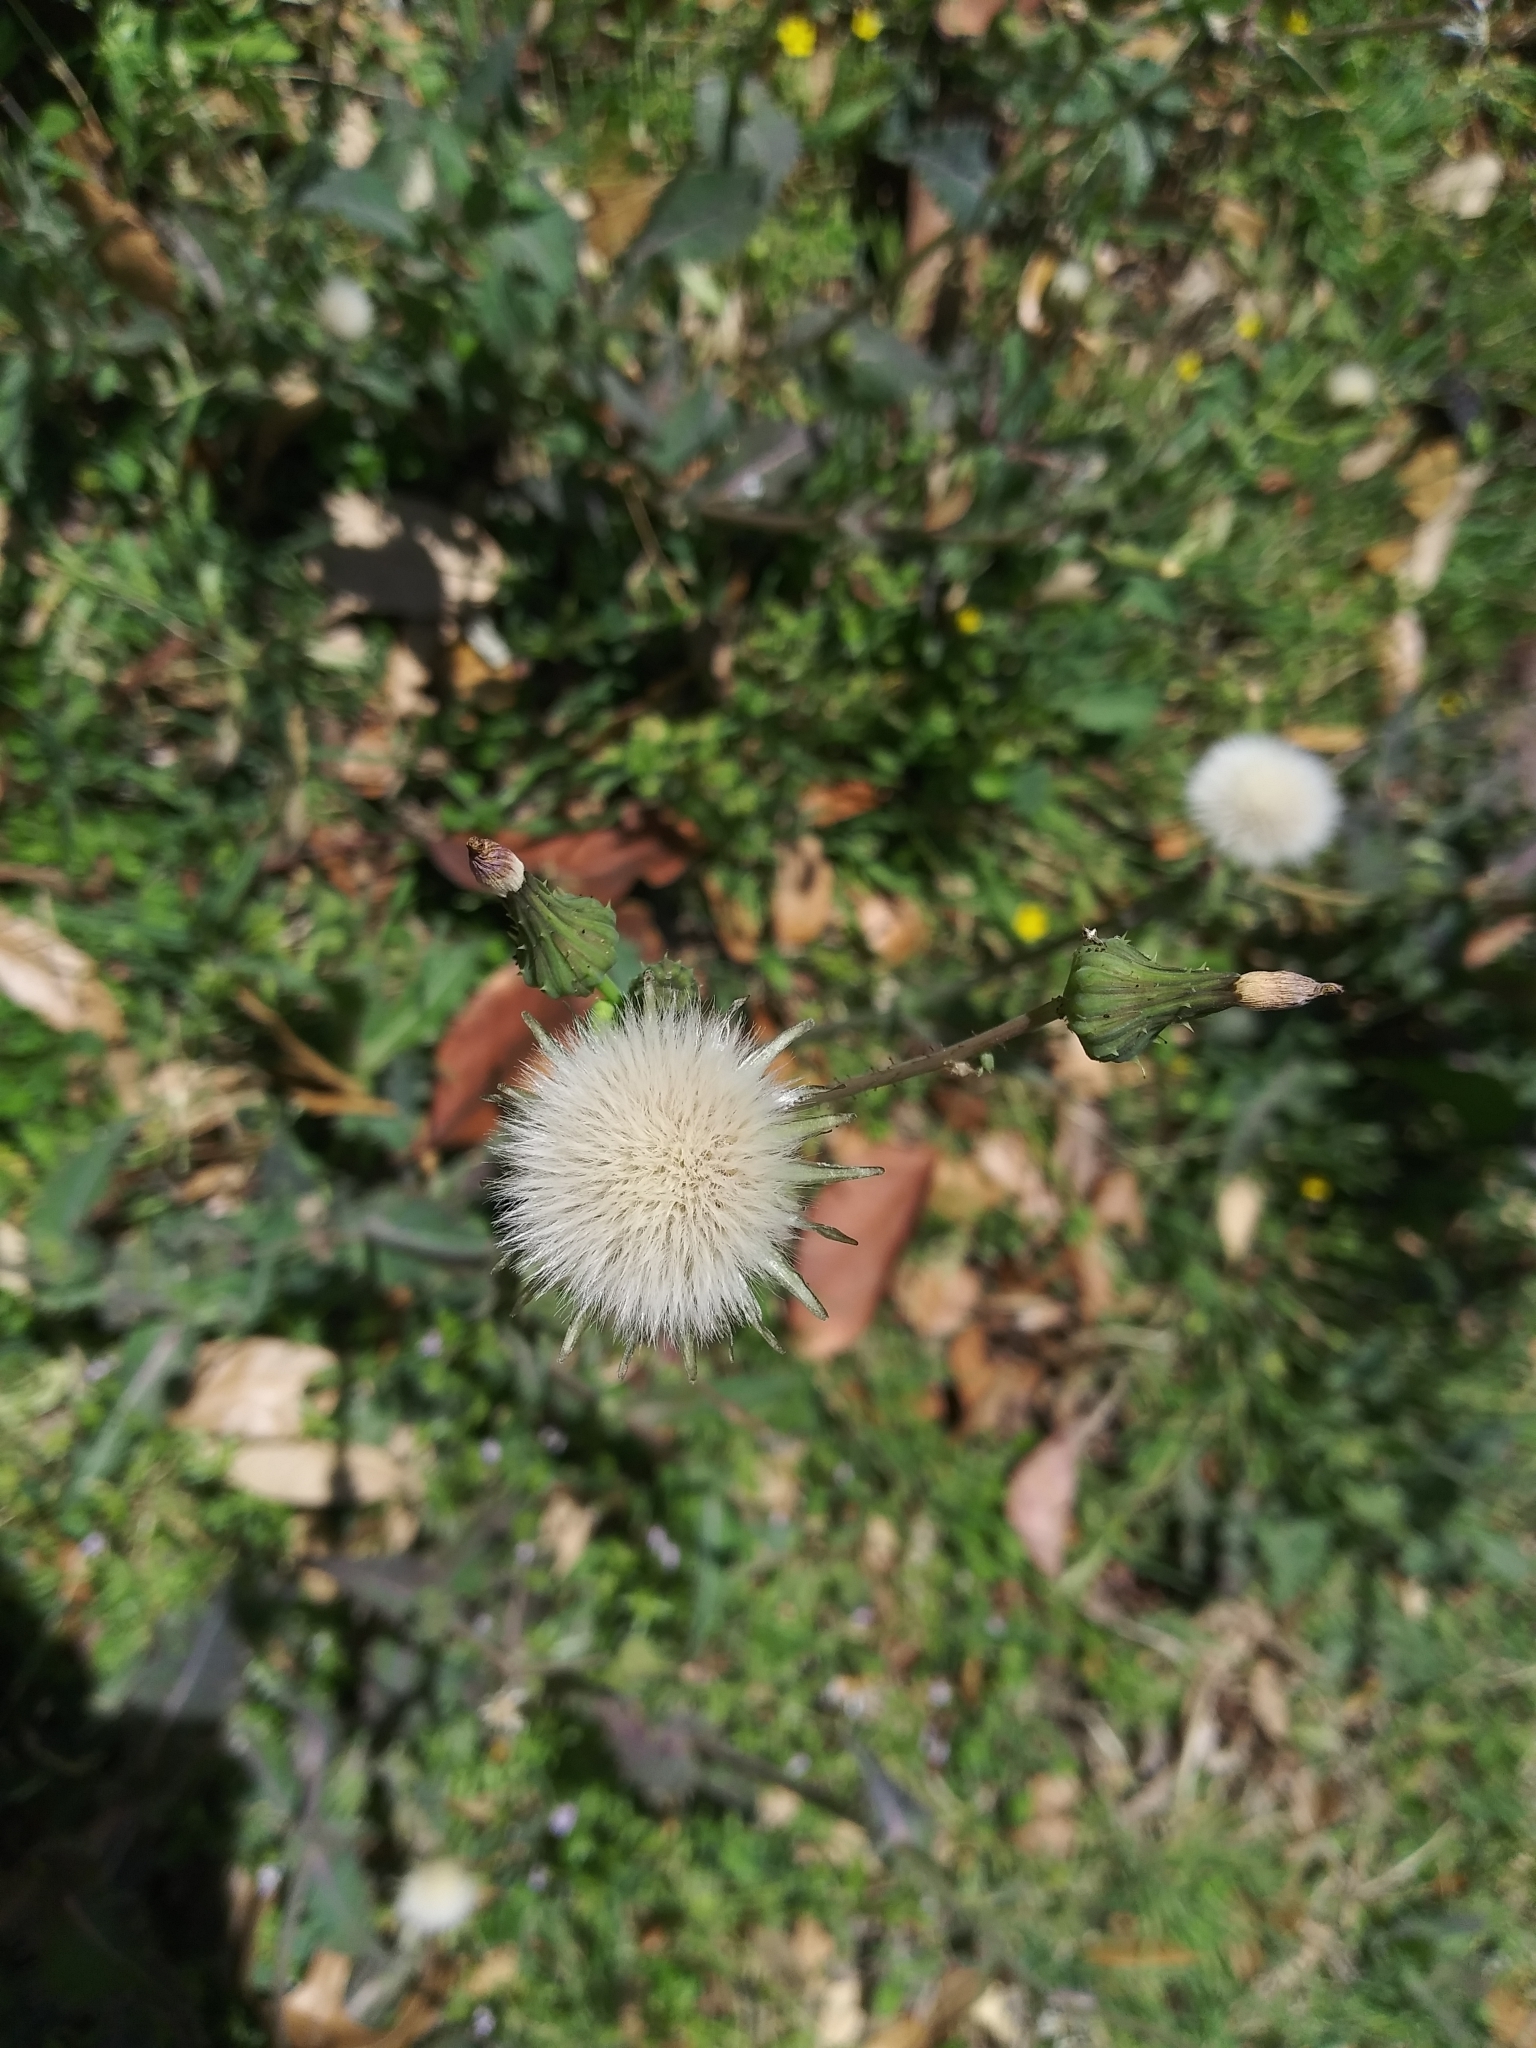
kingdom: Plantae
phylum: Tracheophyta
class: Magnoliopsida
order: Asterales
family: Asteraceae
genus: Sonchus
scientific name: Sonchus oleraceus
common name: Common sowthistle
